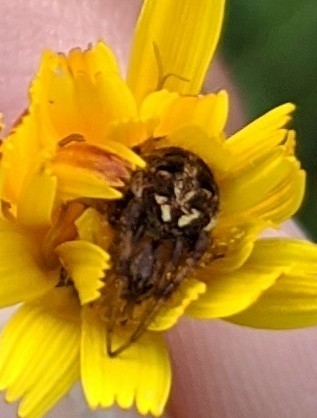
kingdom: Animalia
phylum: Arthropoda
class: Arachnida
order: Araneae
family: Araneidae
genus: Neoscona
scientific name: Neoscona arabesca
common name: Orb weavers
